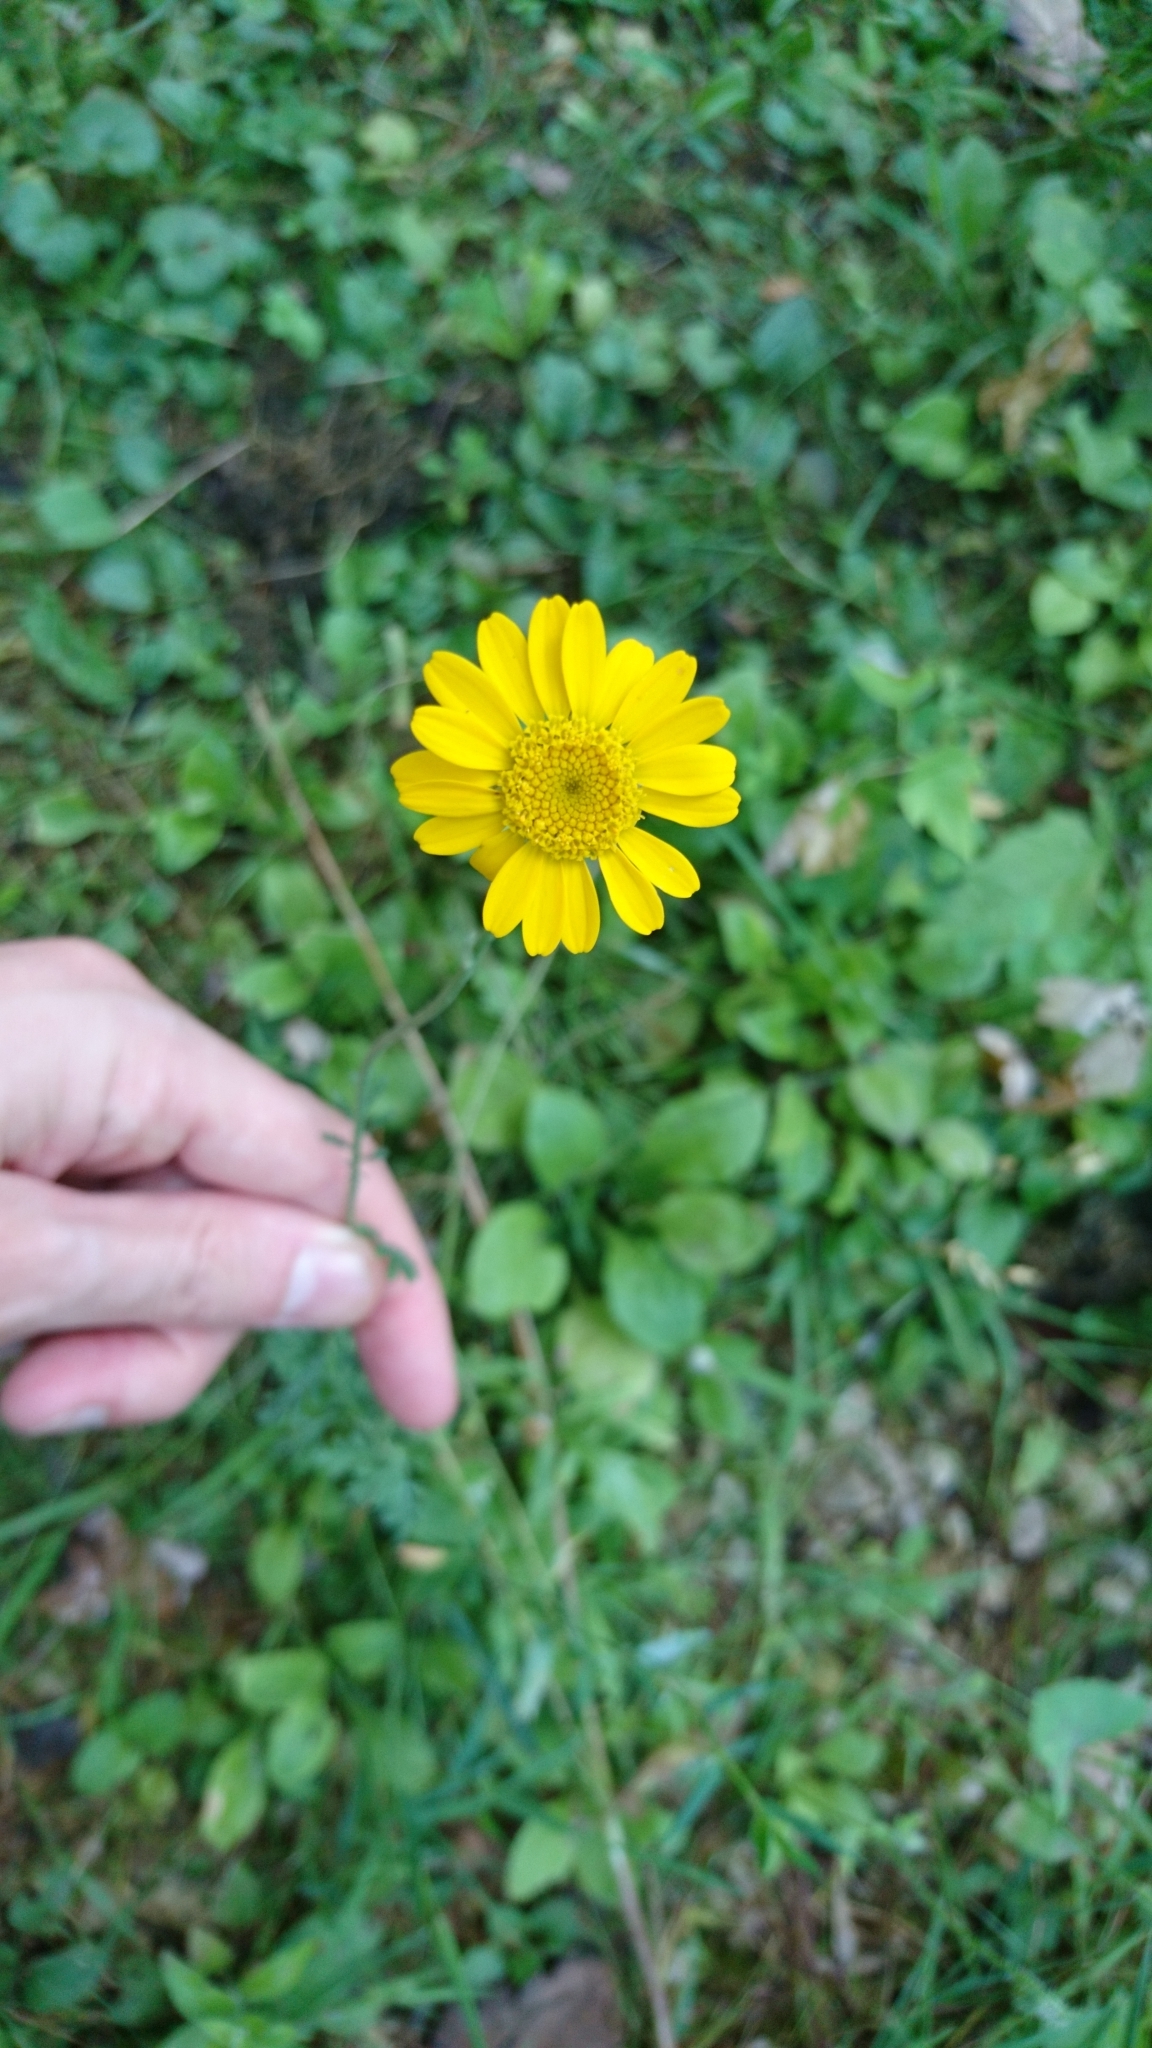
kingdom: Plantae
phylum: Tracheophyta
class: Magnoliopsida
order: Asterales
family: Asteraceae
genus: Cota
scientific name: Cota tinctoria
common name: Golden chamomile
